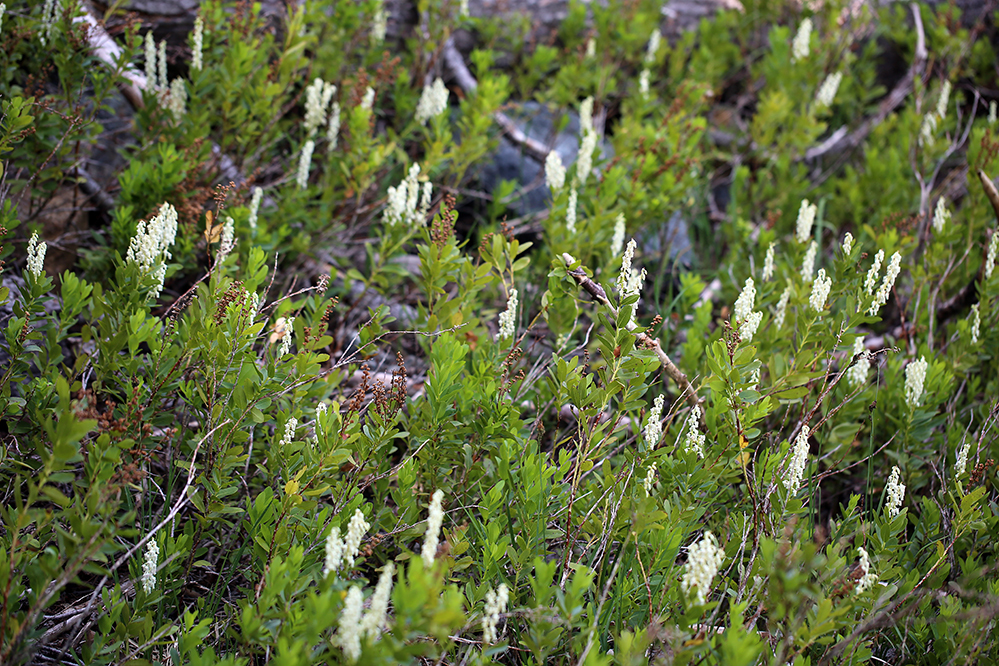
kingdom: Plantae
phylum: Tracheophyta
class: Magnoliopsida
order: Ericales
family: Ericaceae
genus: Leucothoe
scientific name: Leucothoe davisiae
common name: Sierra-laurel
